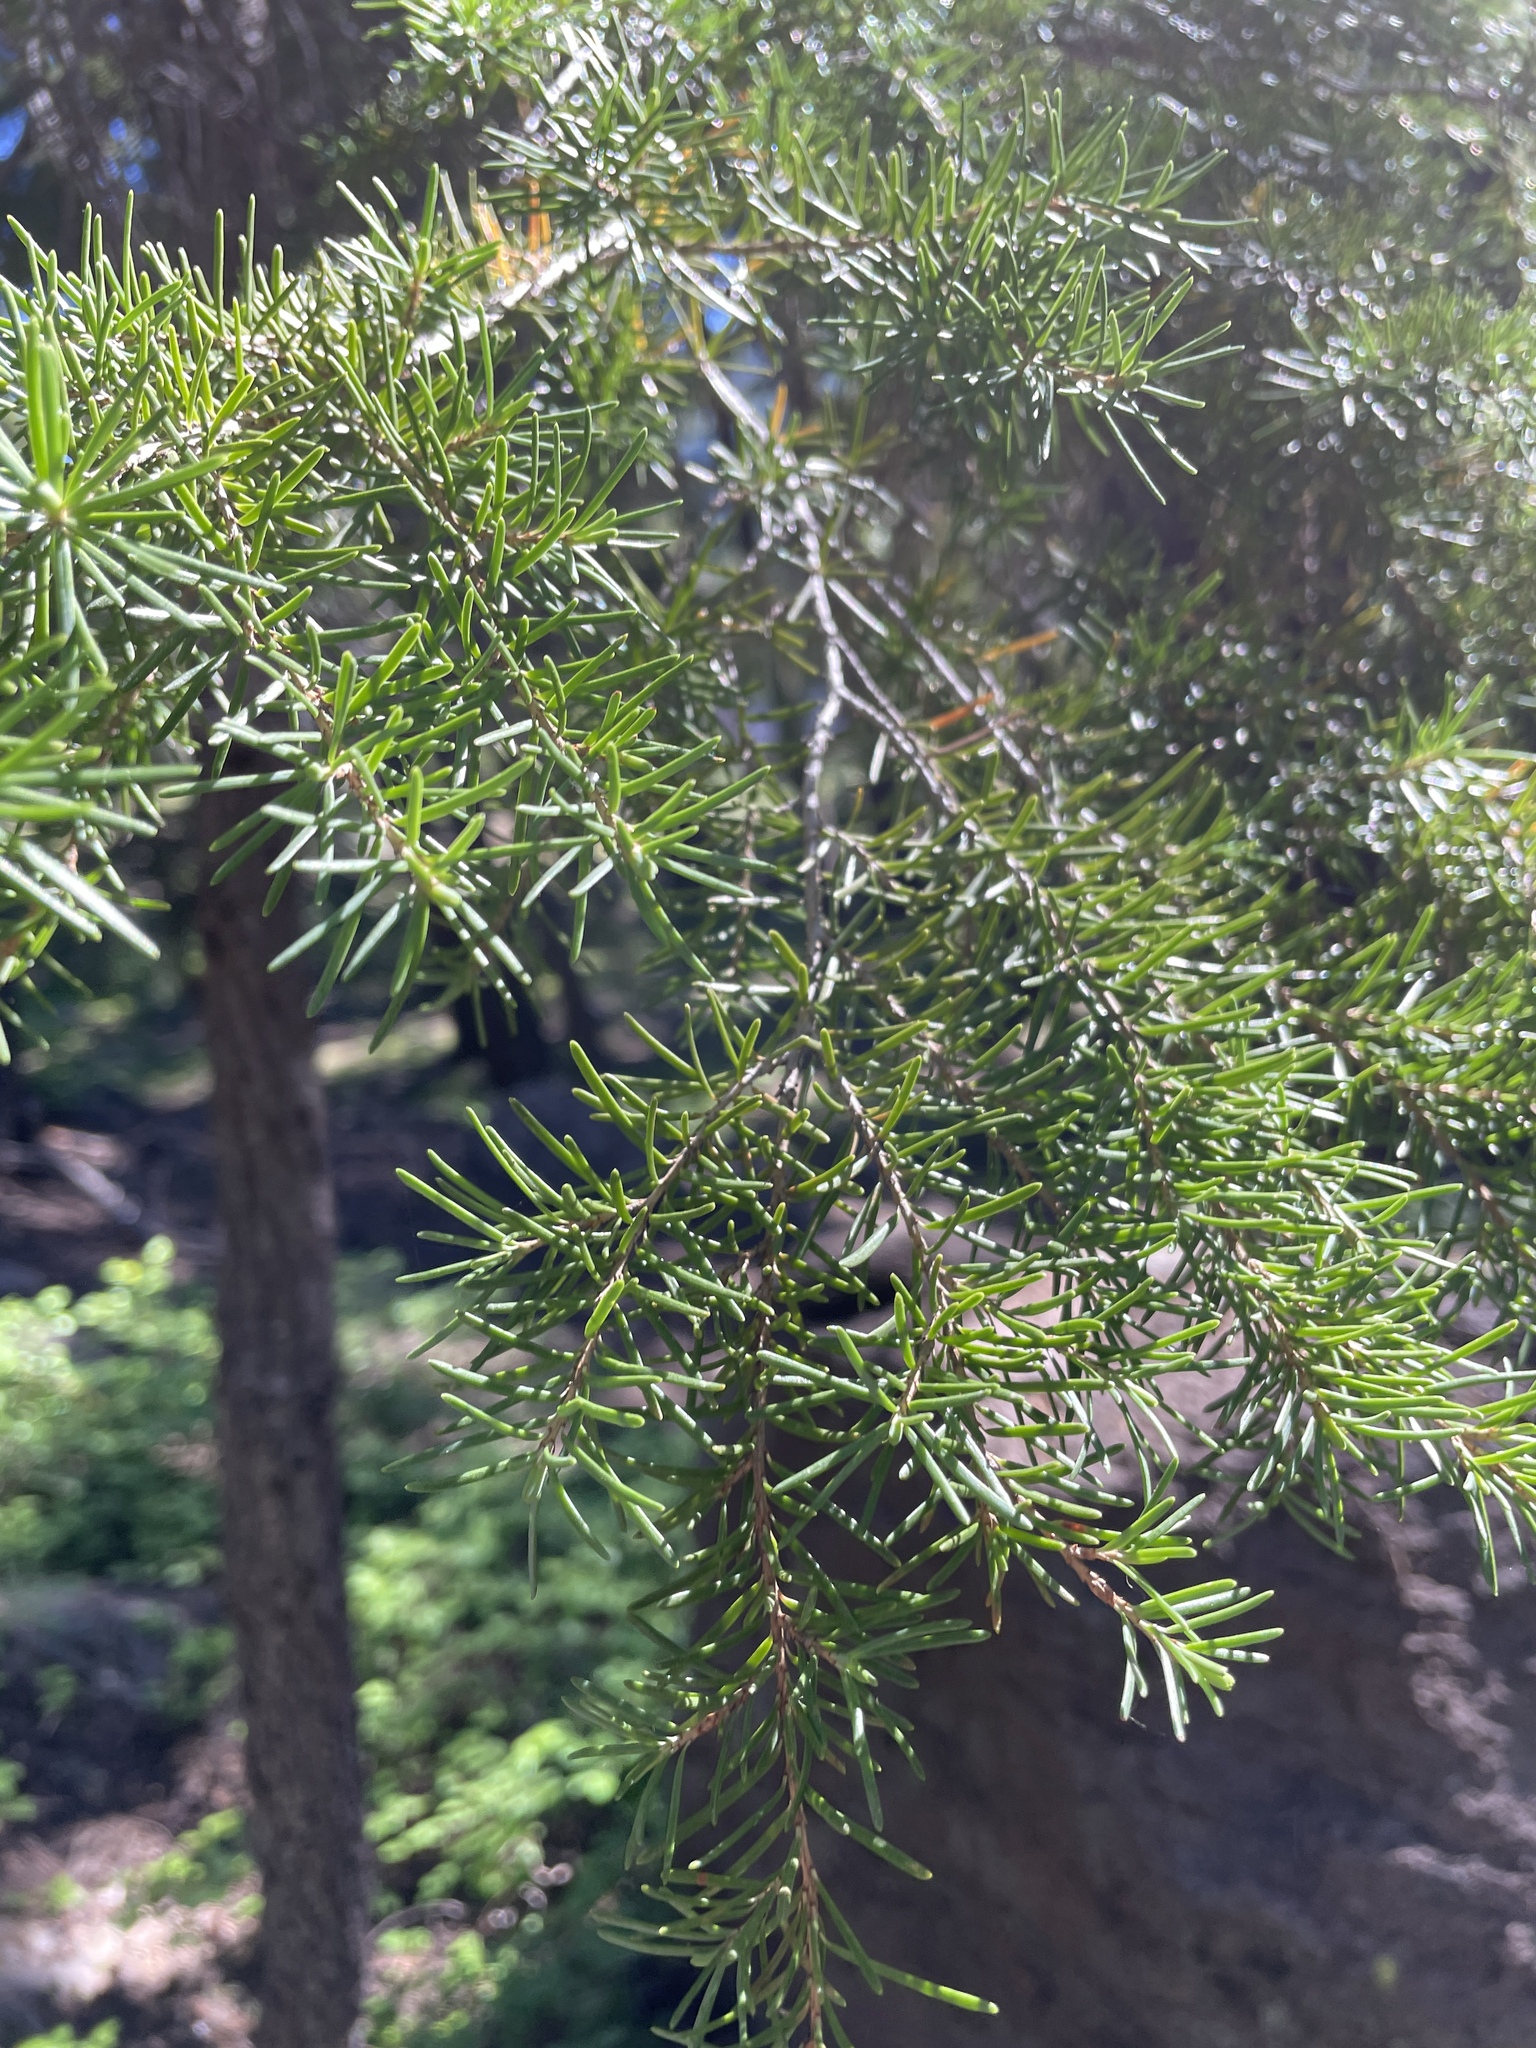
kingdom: Plantae
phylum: Tracheophyta
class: Pinopsida
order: Pinales
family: Pinaceae
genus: Tsuga
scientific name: Tsuga mertensiana
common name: Mountain hemlock
